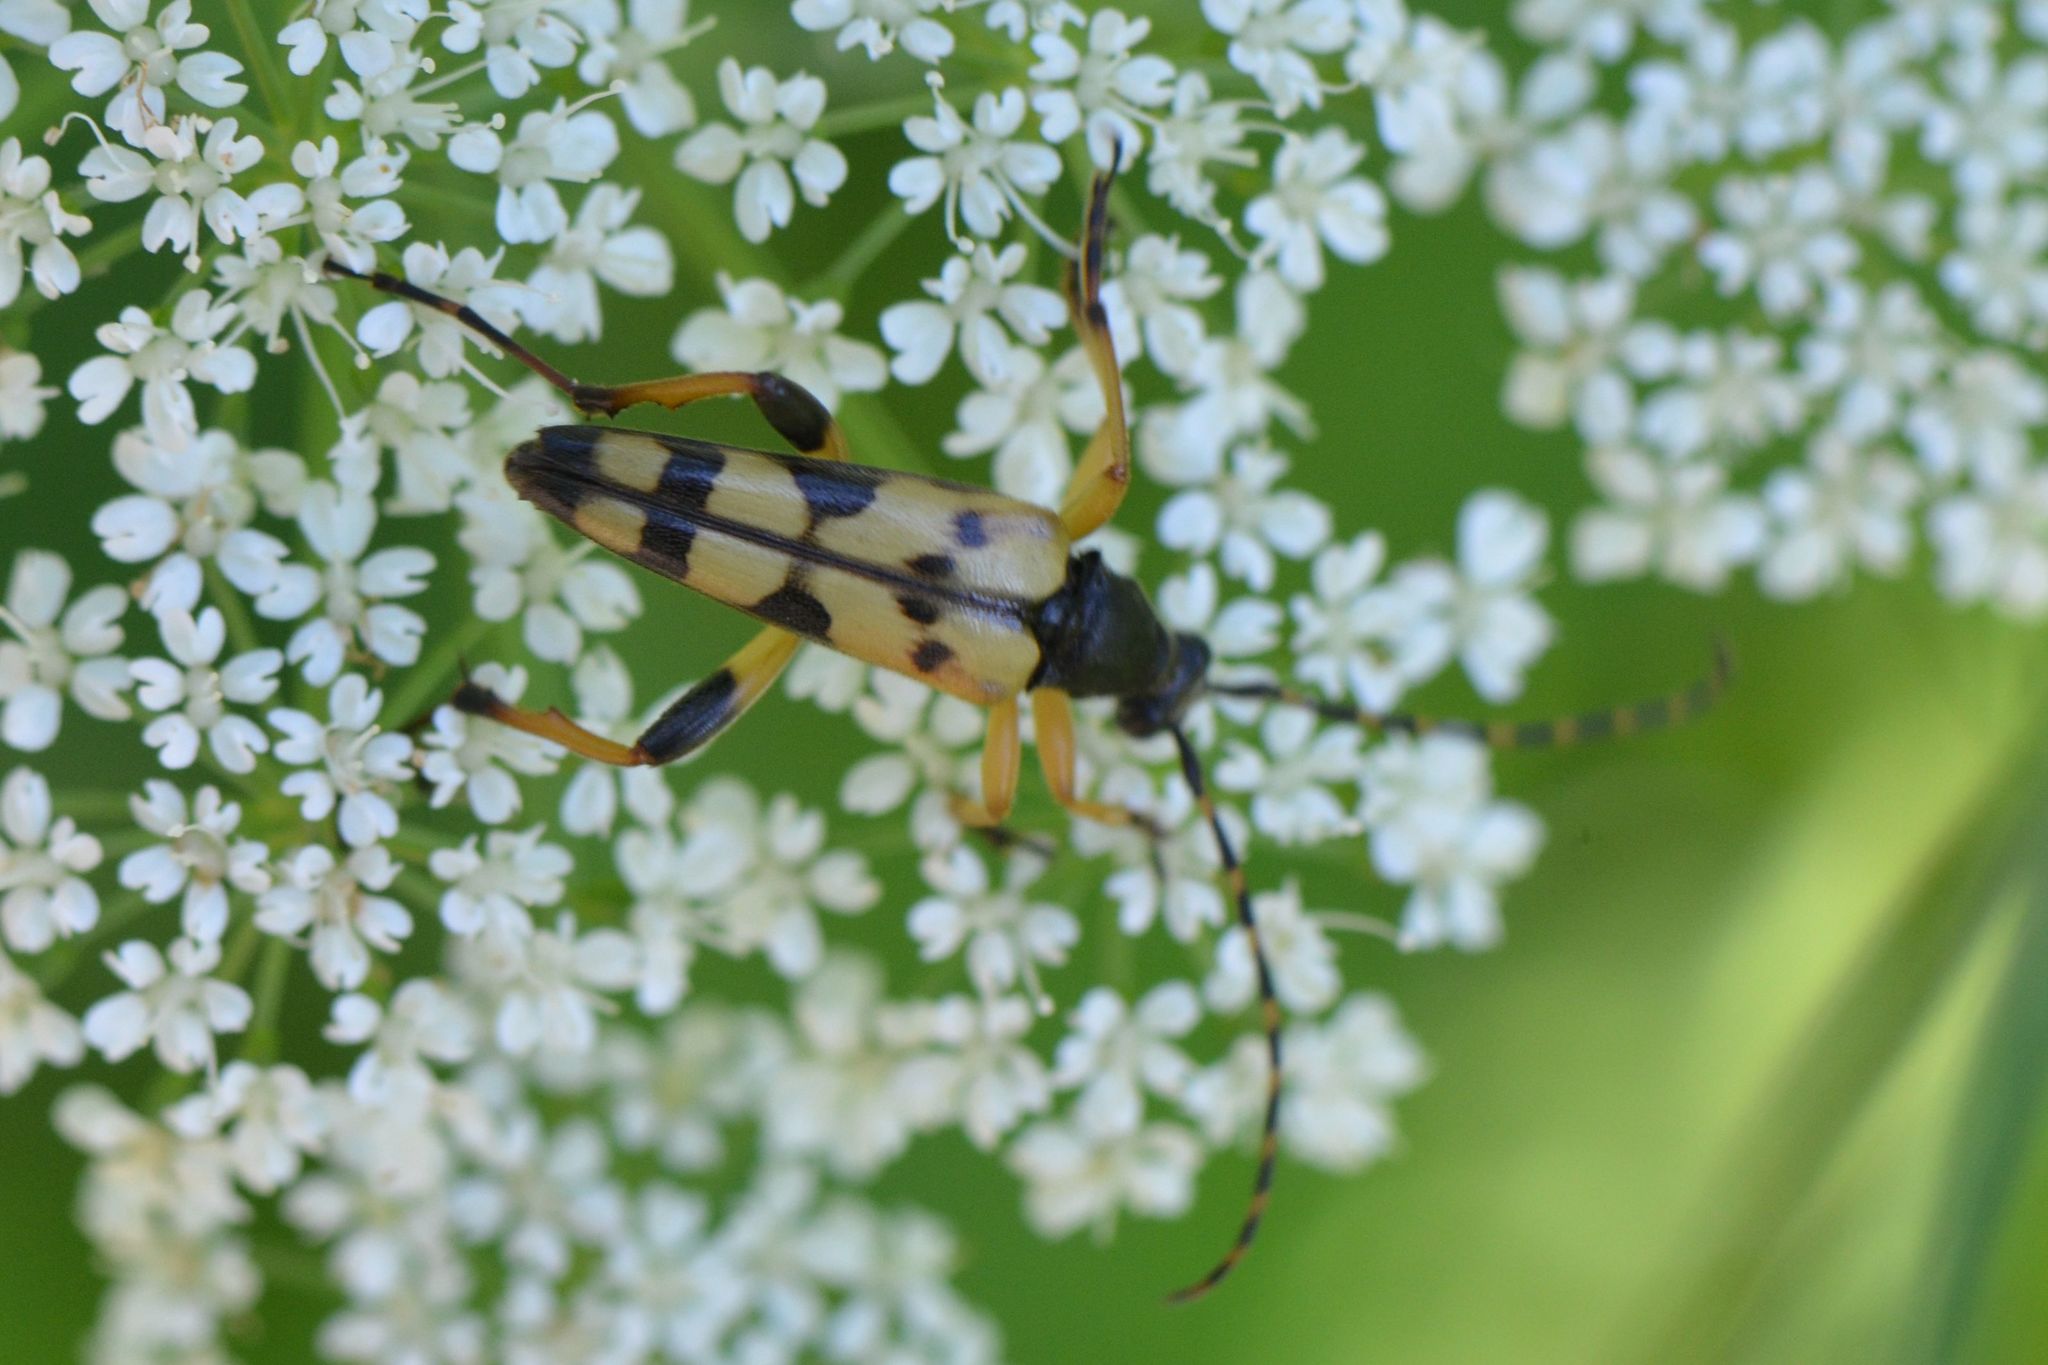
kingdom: Animalia
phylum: Arthropoda
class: Insecta
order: Coleoptera
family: Cerambycidae
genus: Rutpela
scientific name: Rutpela maculata
